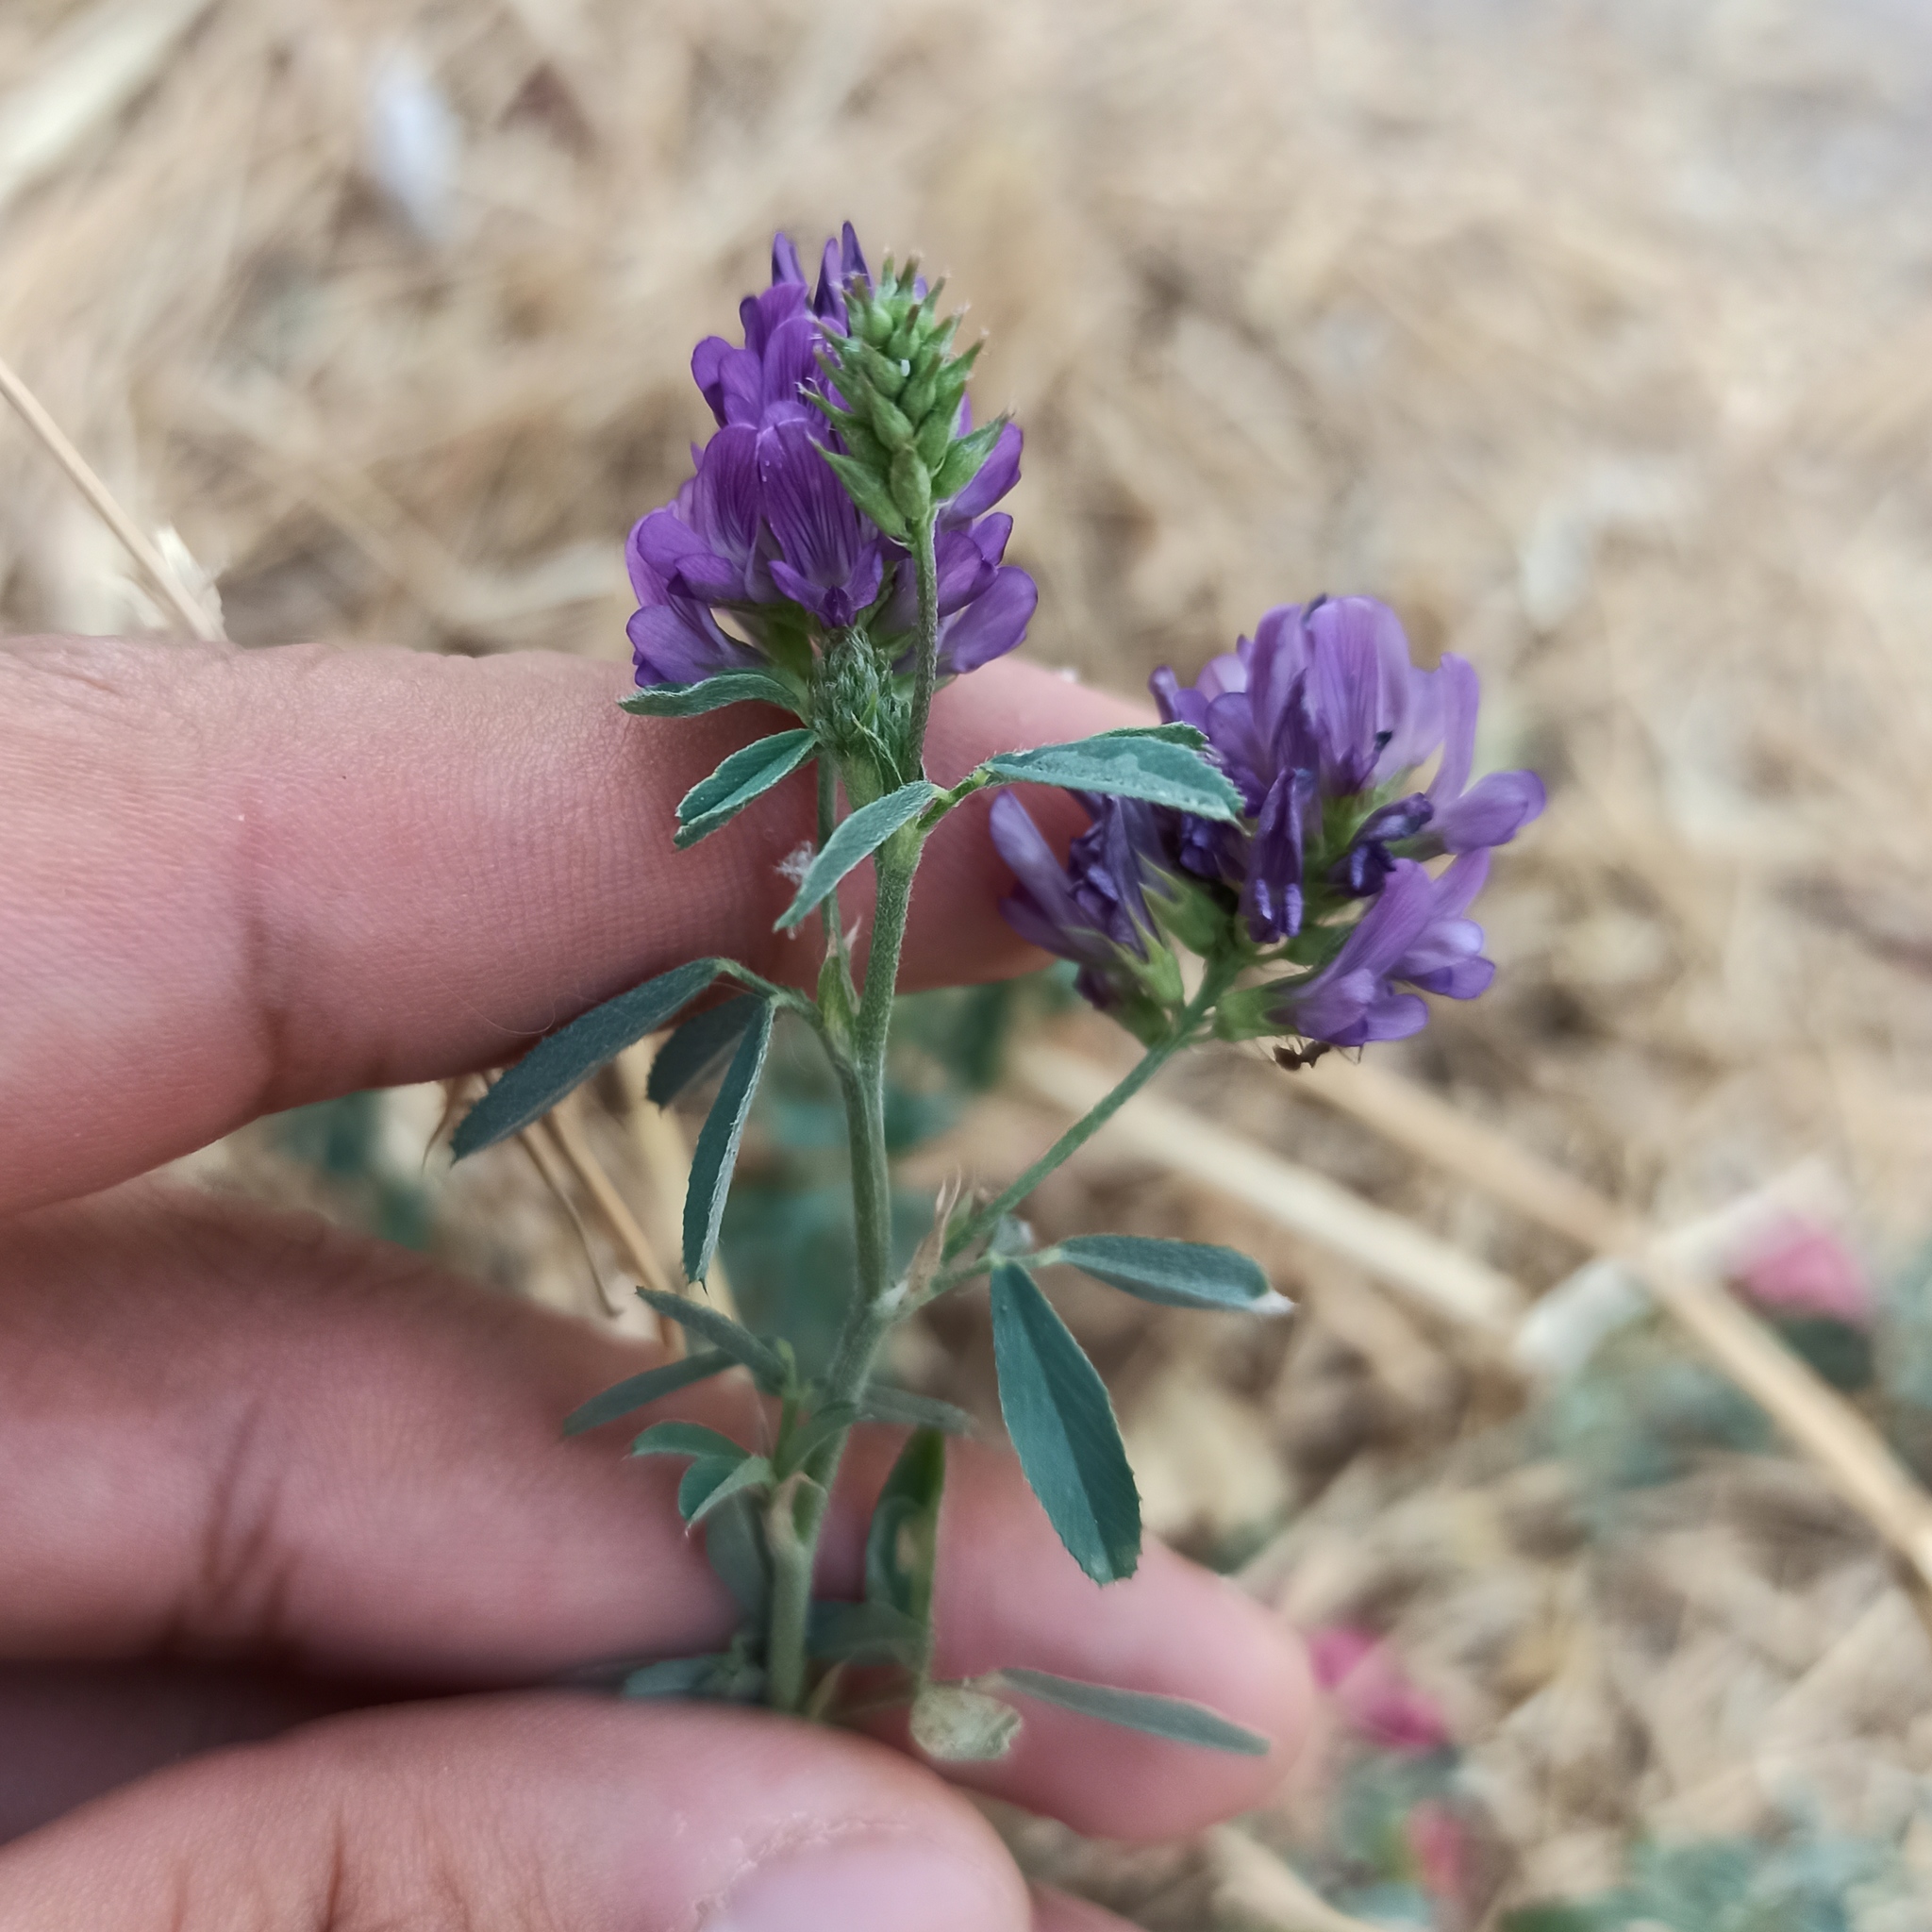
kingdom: Plantae
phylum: Tracheophyta
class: Magnoliopsida
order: Fabales
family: Fabaceae
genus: Medicago
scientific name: Medicago sativa
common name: Alfalfa
